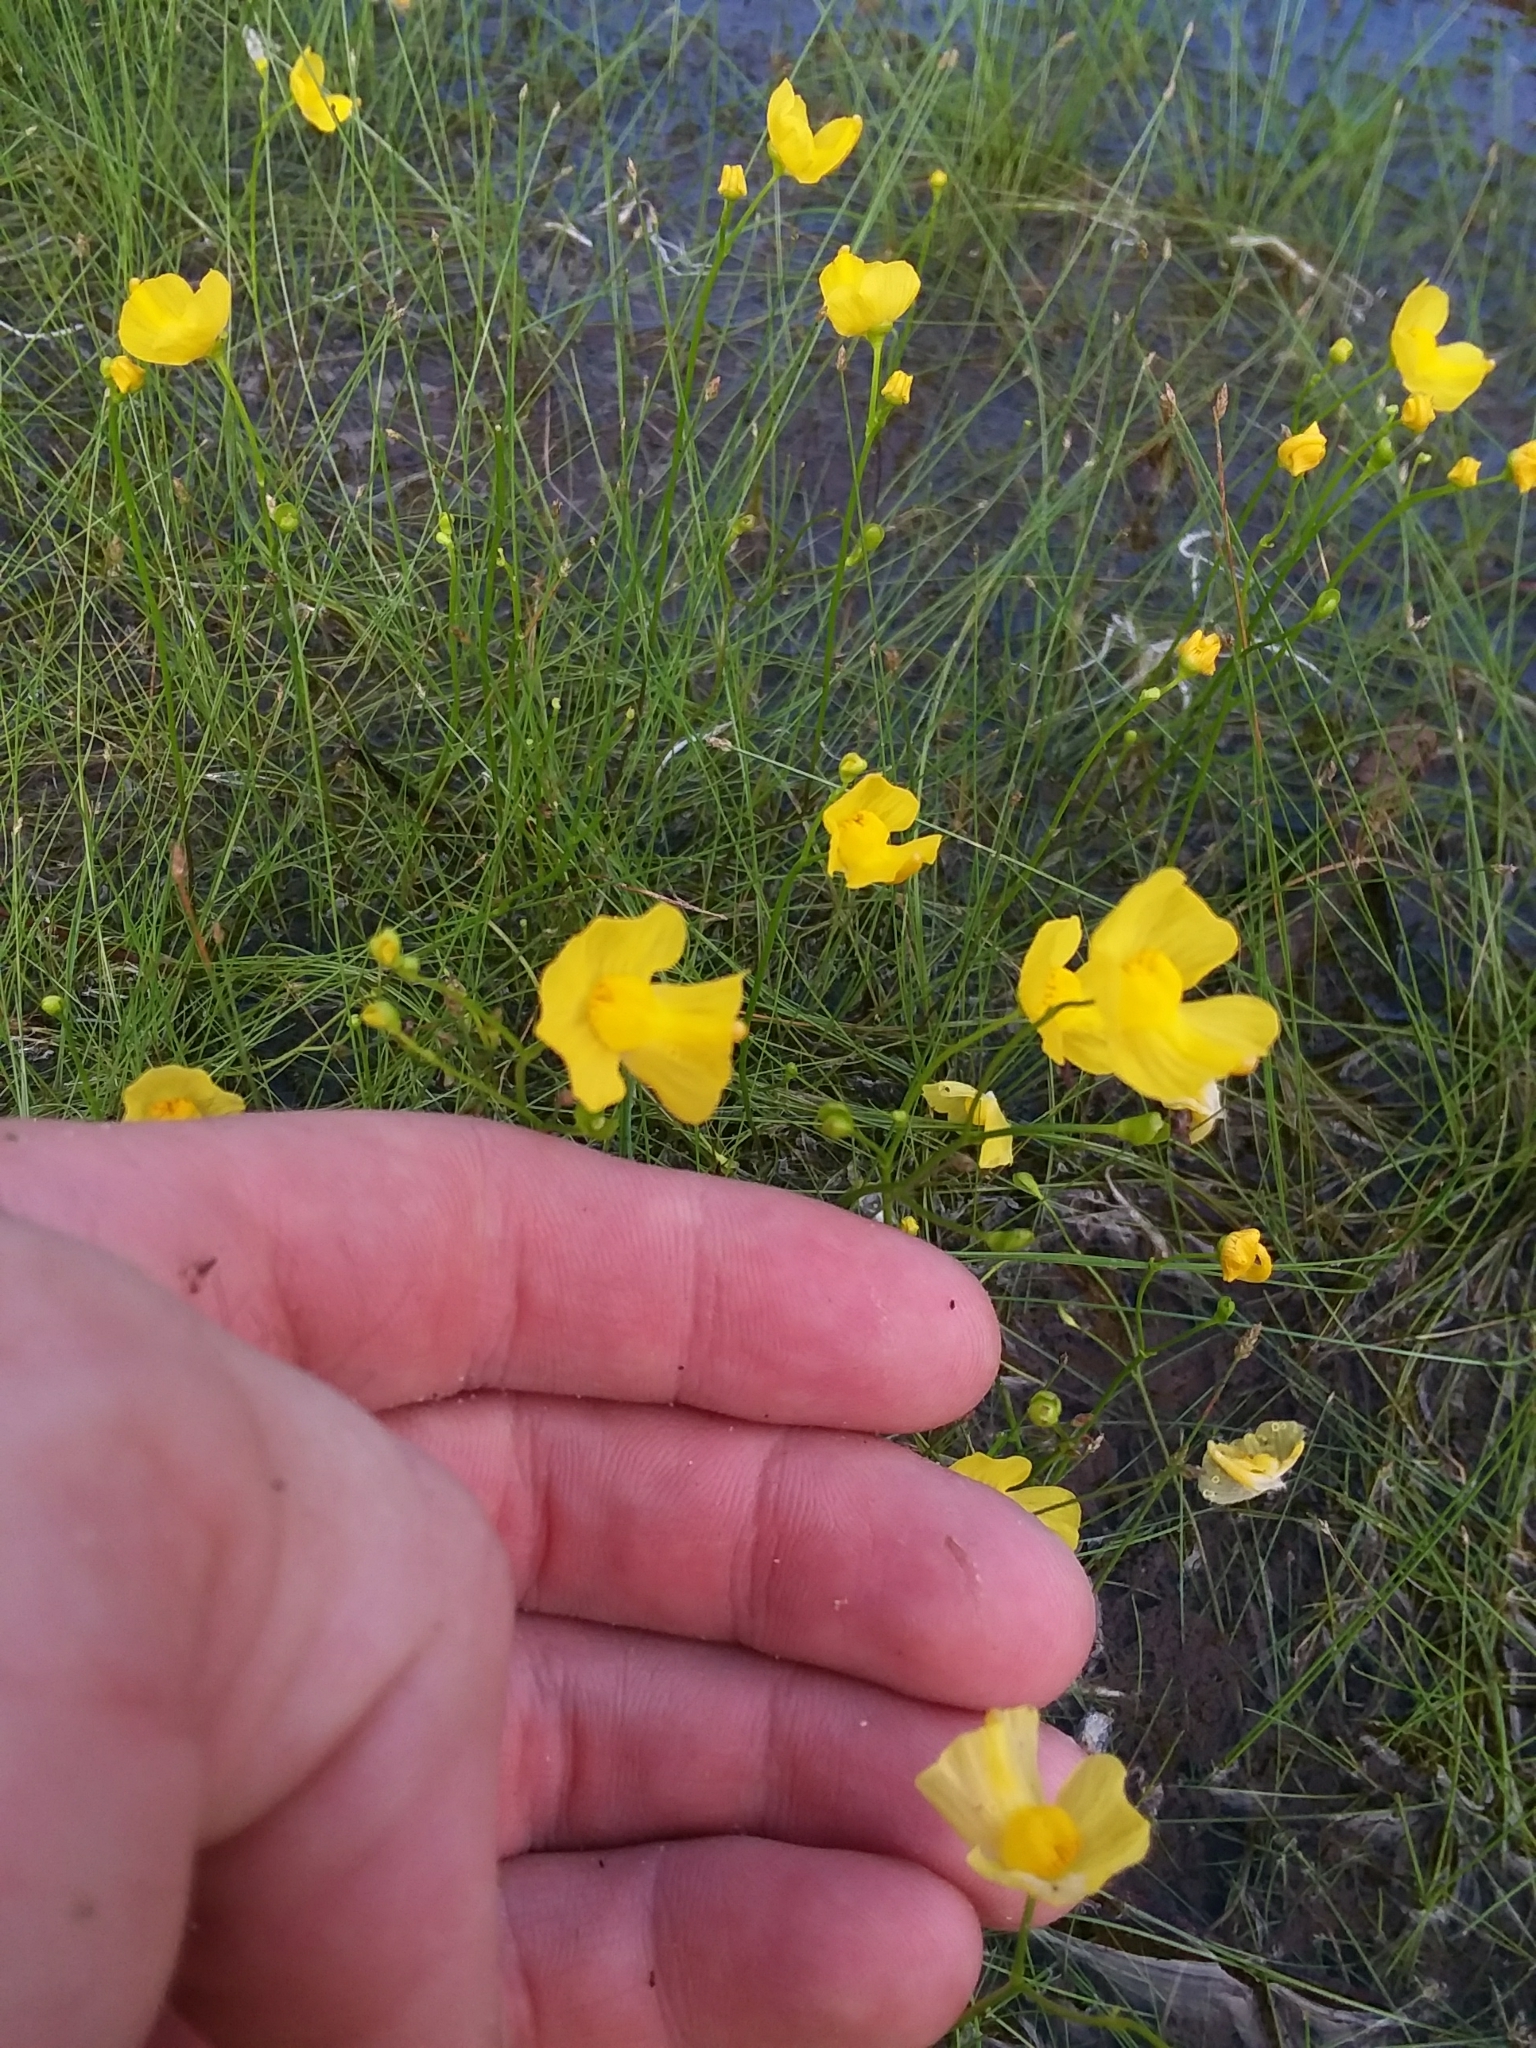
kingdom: Plantae
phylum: Tracheophyta
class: Magnoliopsida
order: Lamiales
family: Lentibulariaceae
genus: Utricularia
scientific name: Utricularia striata
